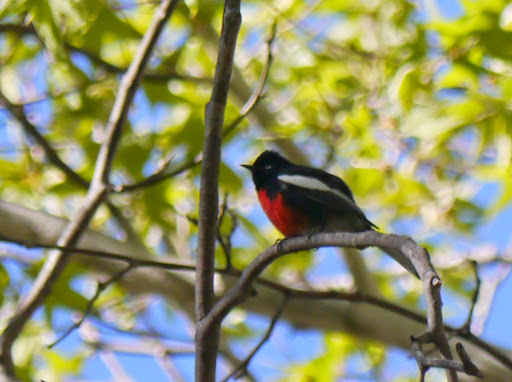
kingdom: Animalia
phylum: Chordata
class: Aves
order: Passeriformes
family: Parulidae
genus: Myioborus
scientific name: Myioborus pictus
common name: Painted whitestart
